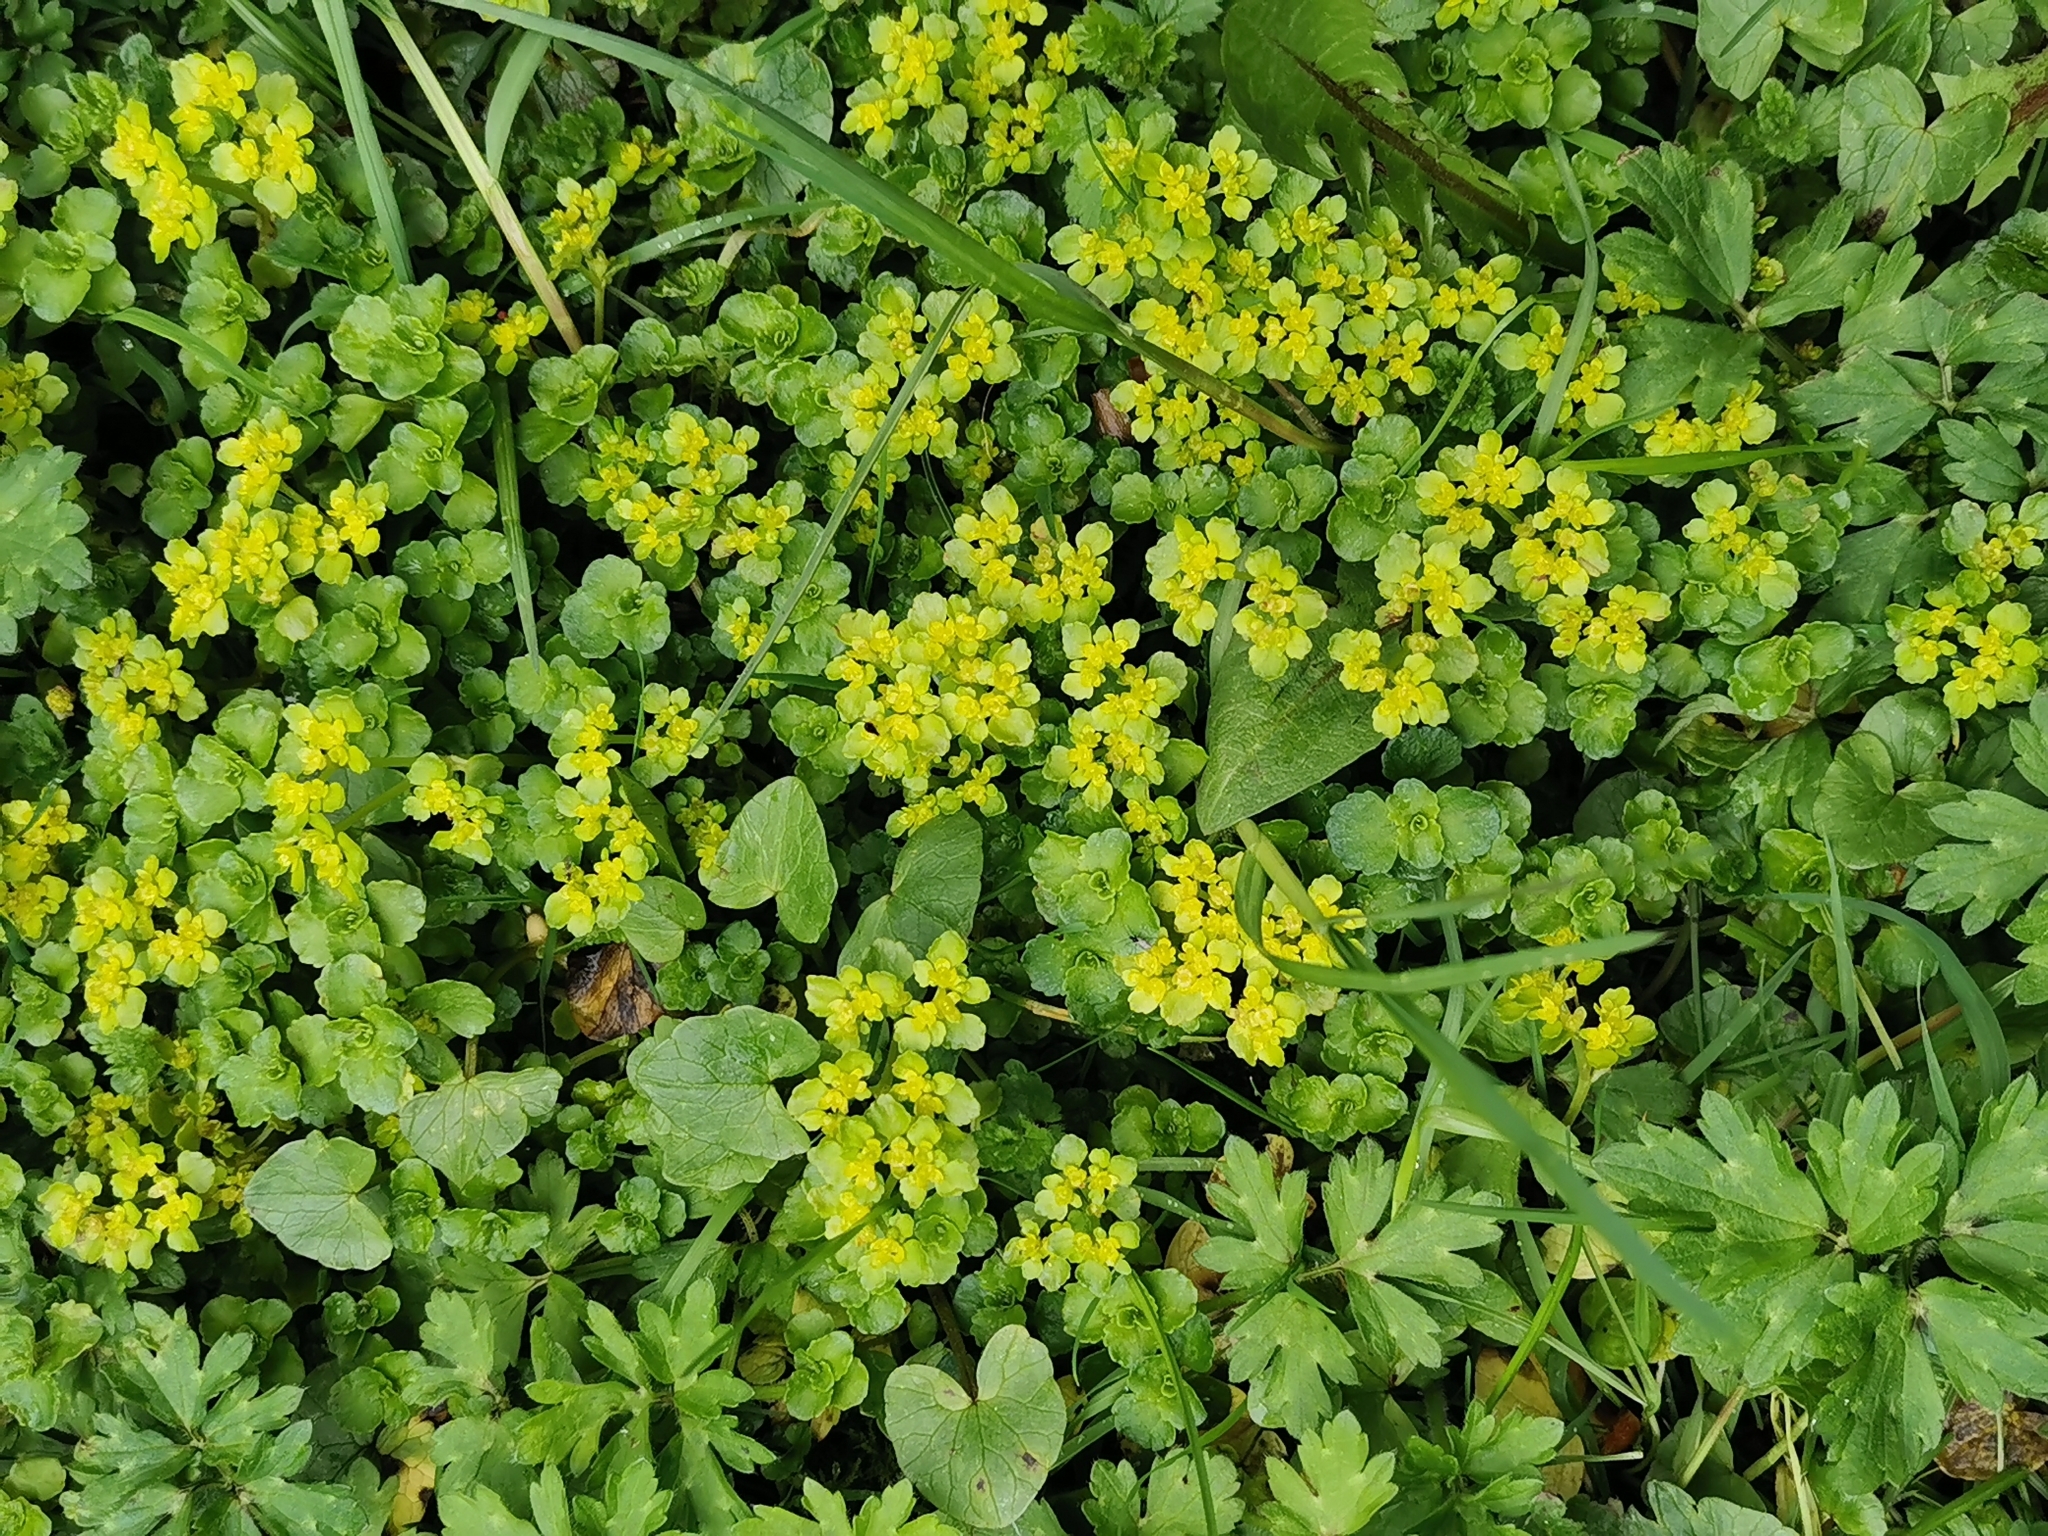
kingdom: Plantae
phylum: Tracheophyta
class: Magnoliopsida
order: Saxifragales
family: Saxifragaceae
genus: Chrysosplenium
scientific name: Chrysosplenium oppositifolium
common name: Opposite-leaved golden-saxifrage
